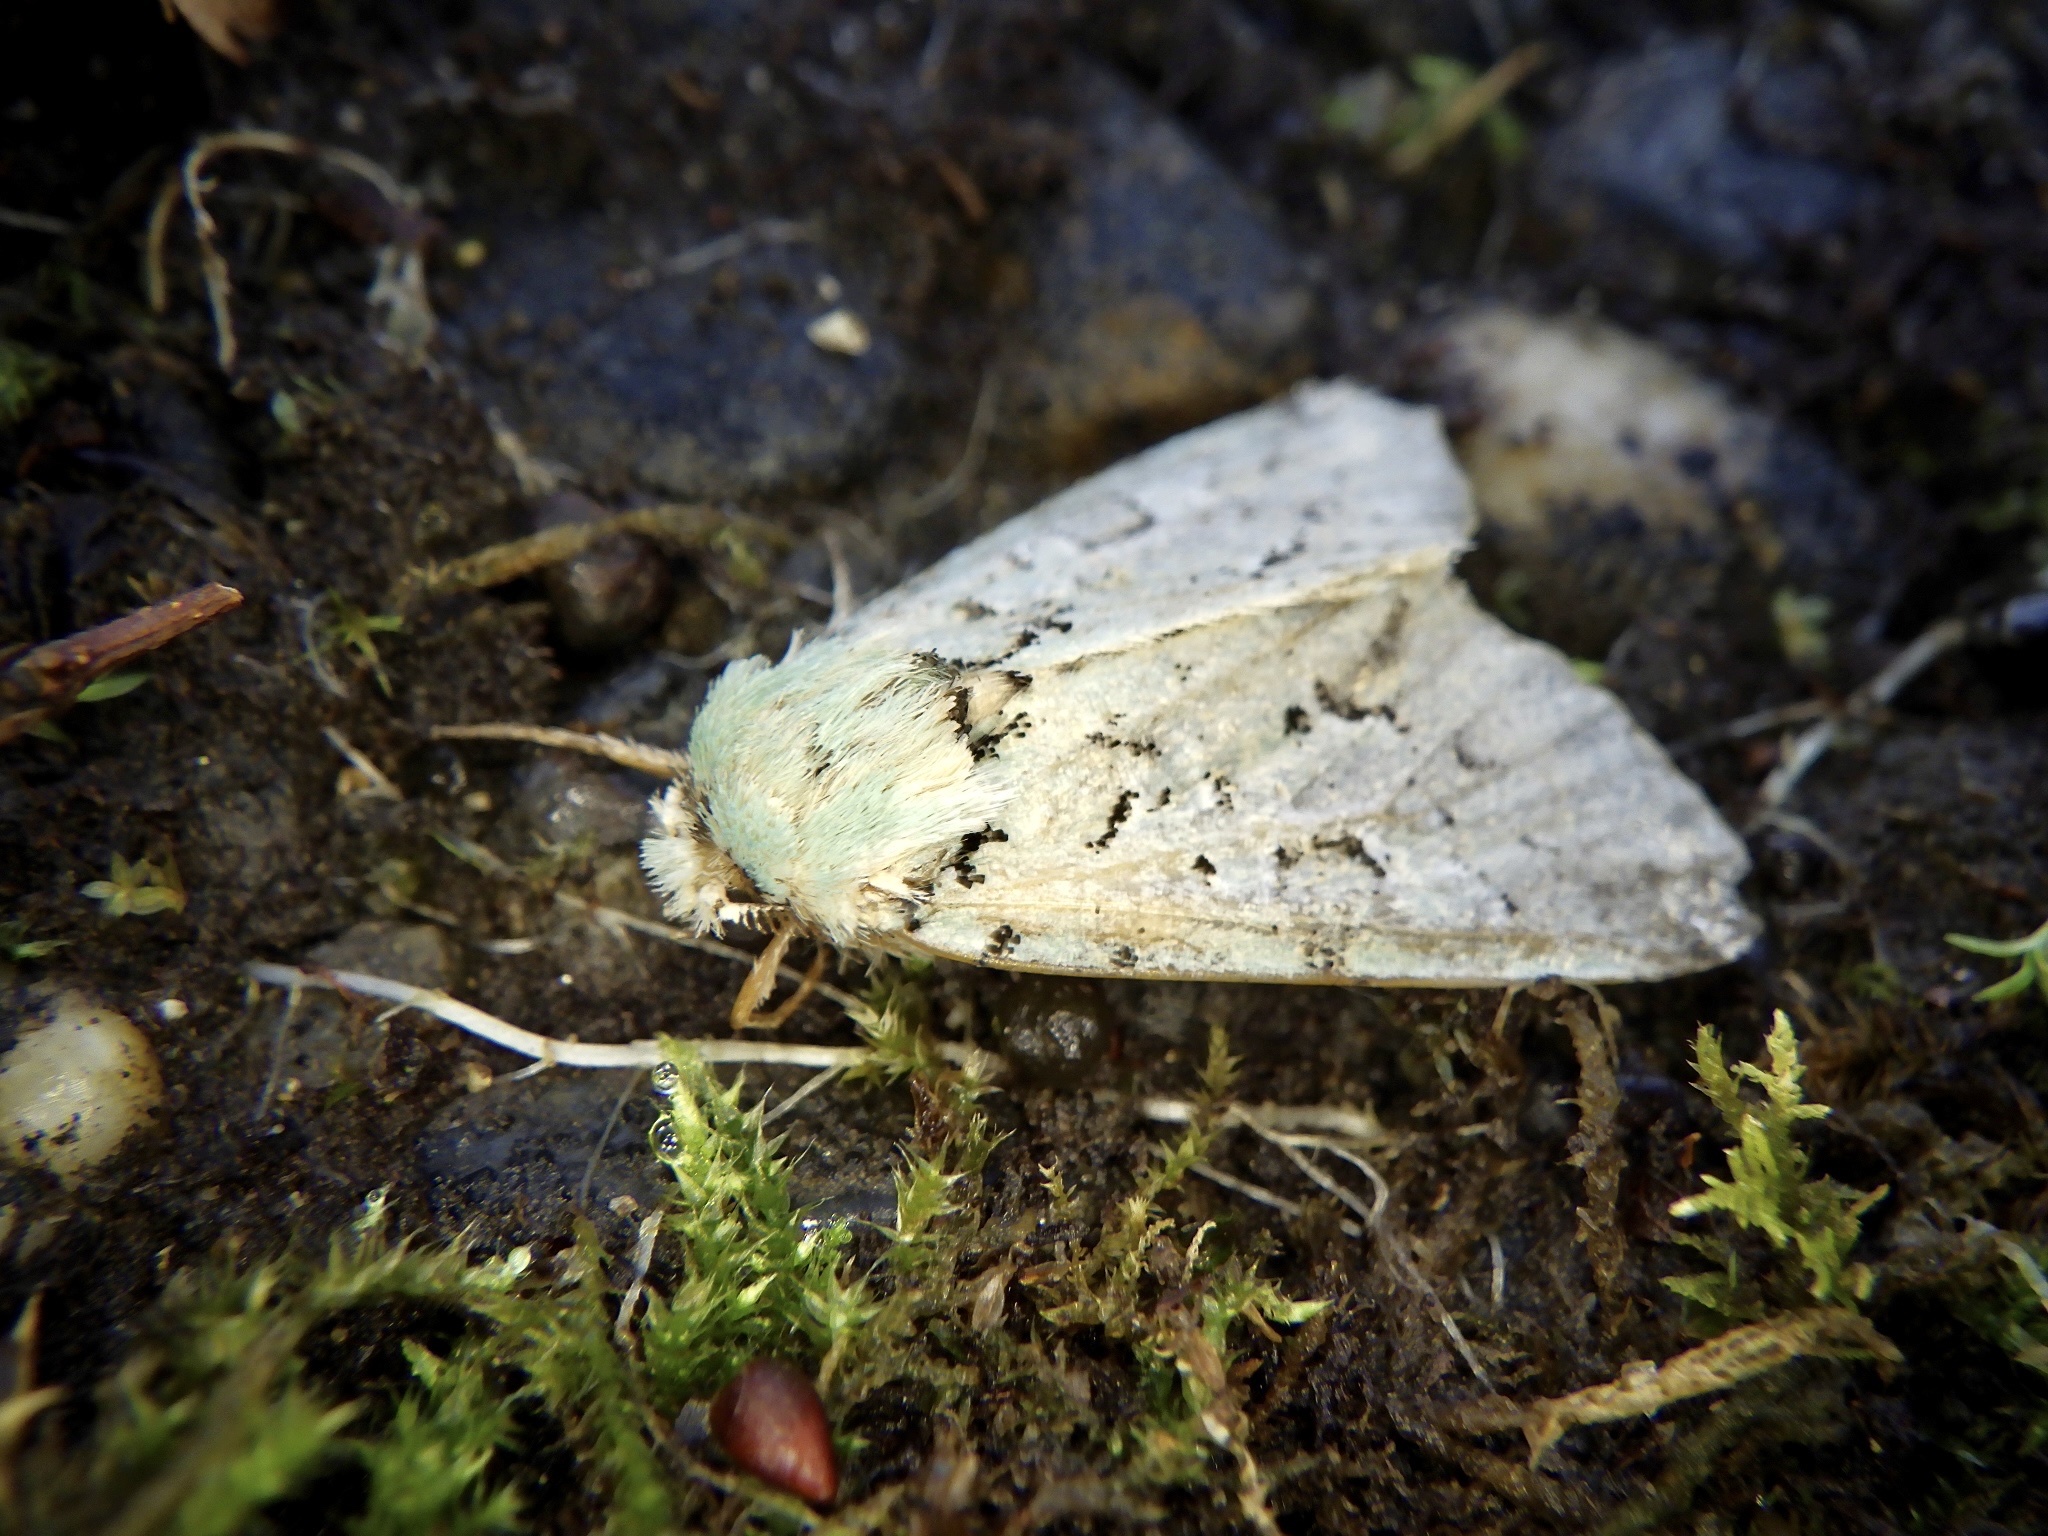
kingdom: Animalia
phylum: Arthropoda
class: Insecta
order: Lepidoptera
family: Noctuidae
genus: Daseochaeta
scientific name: Daseochaeta viridis
